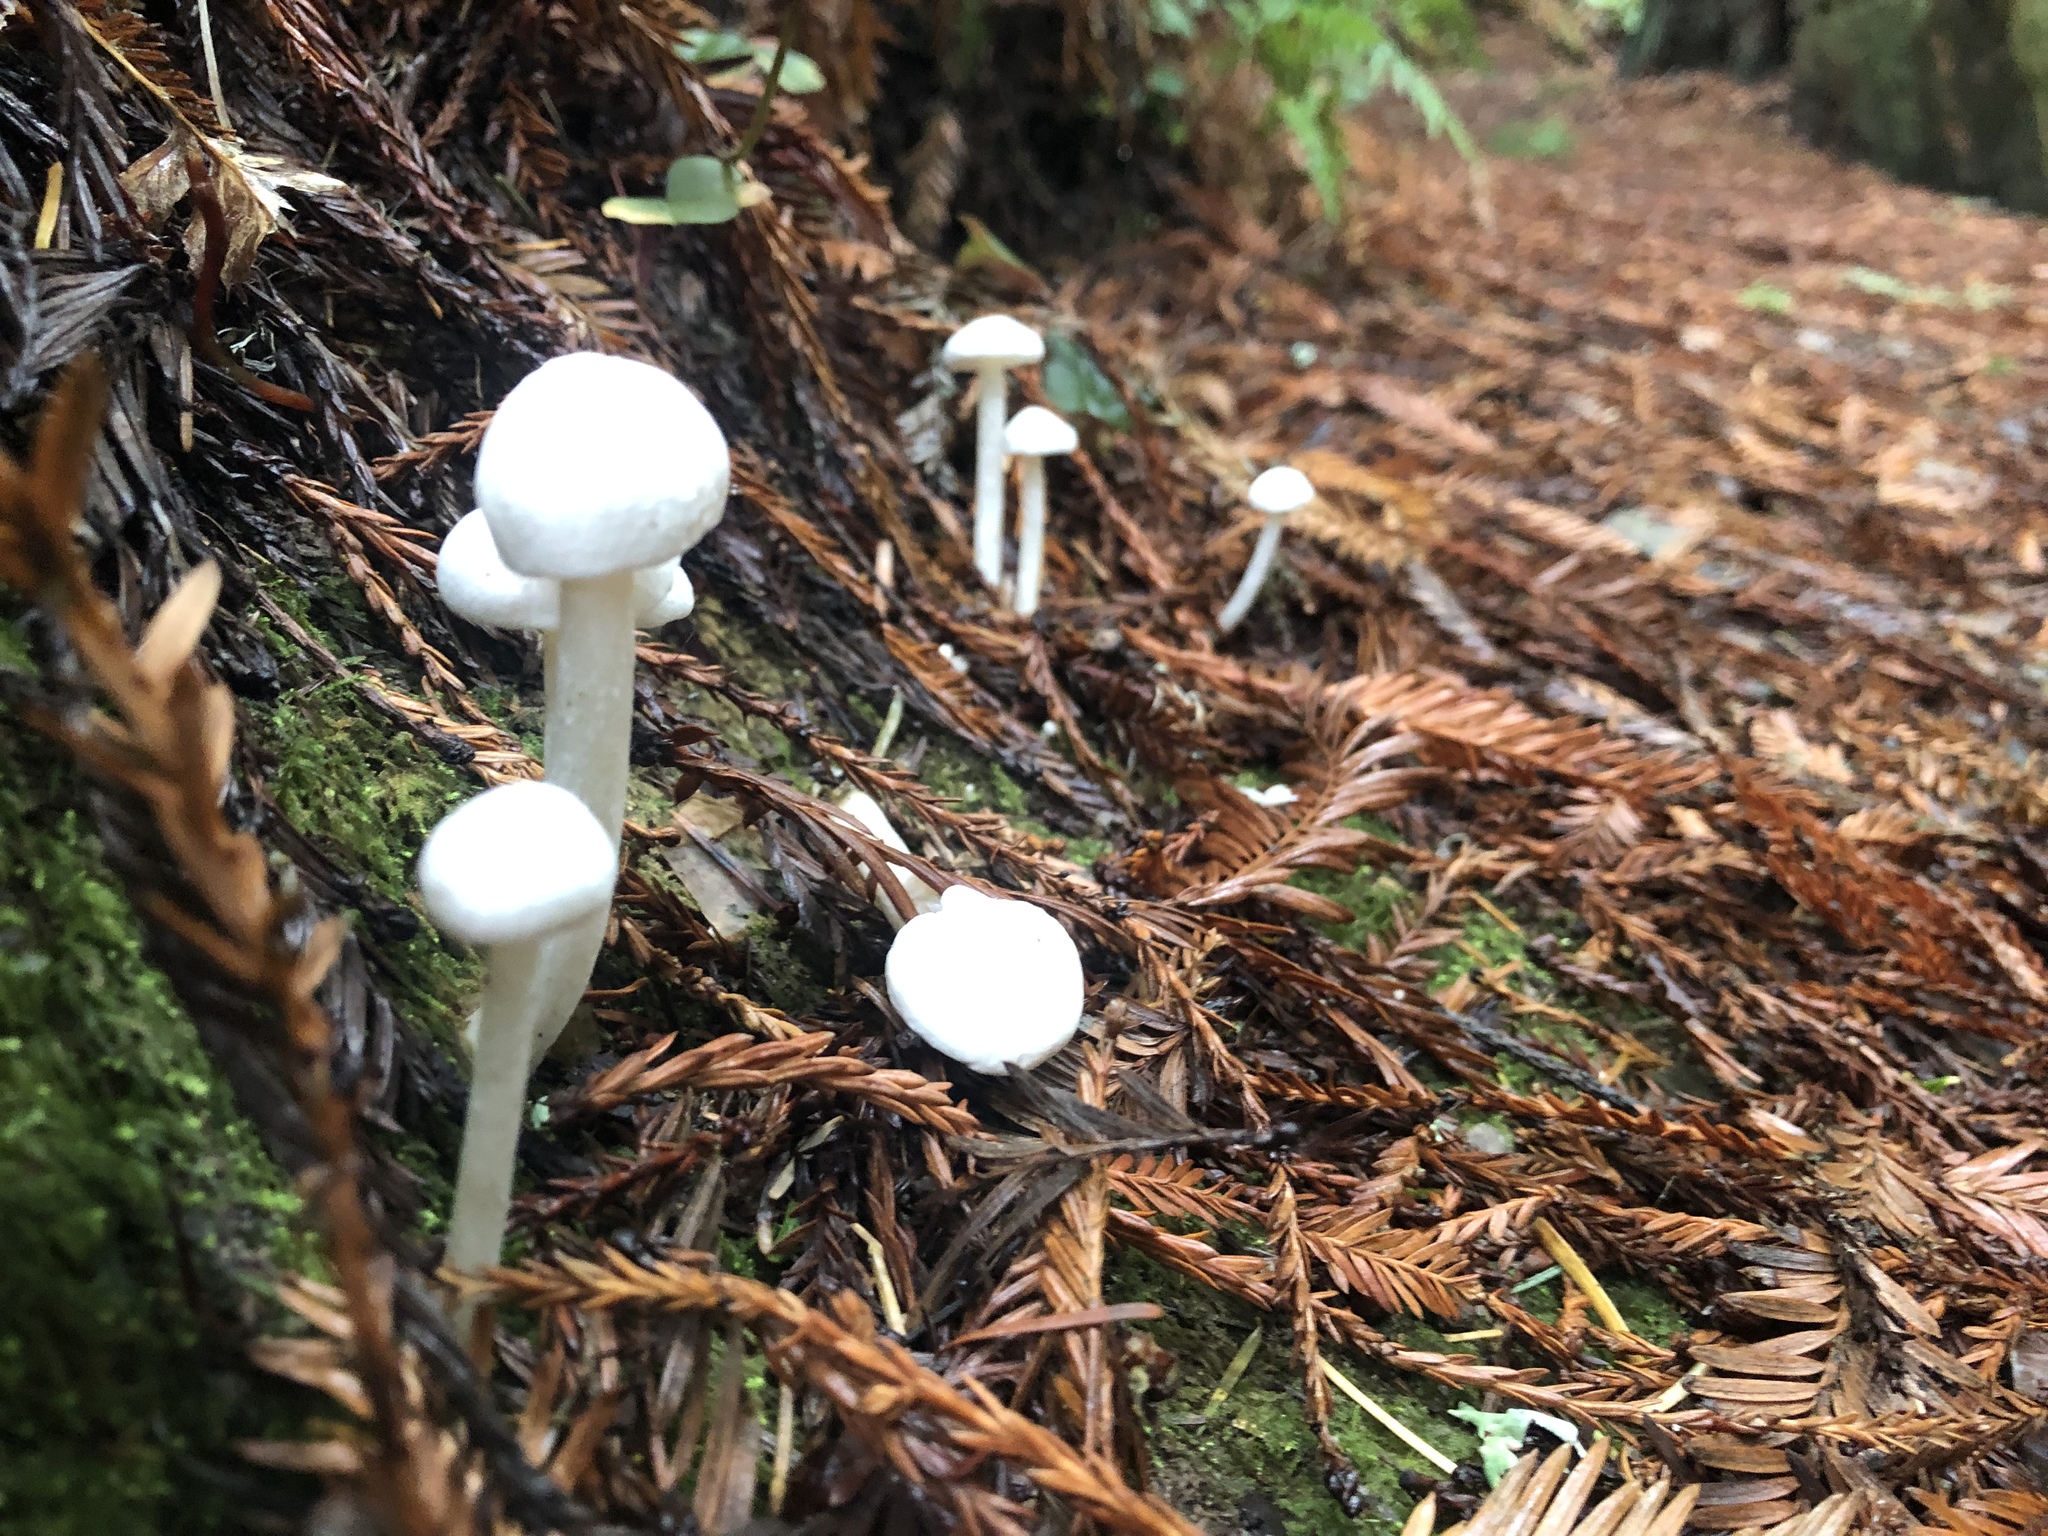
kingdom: Fungi
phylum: Basidiomycota
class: Agaricomycetes
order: Agaricales
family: Entolomataceae
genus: Entoloma
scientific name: Entoloma adnatifolium
